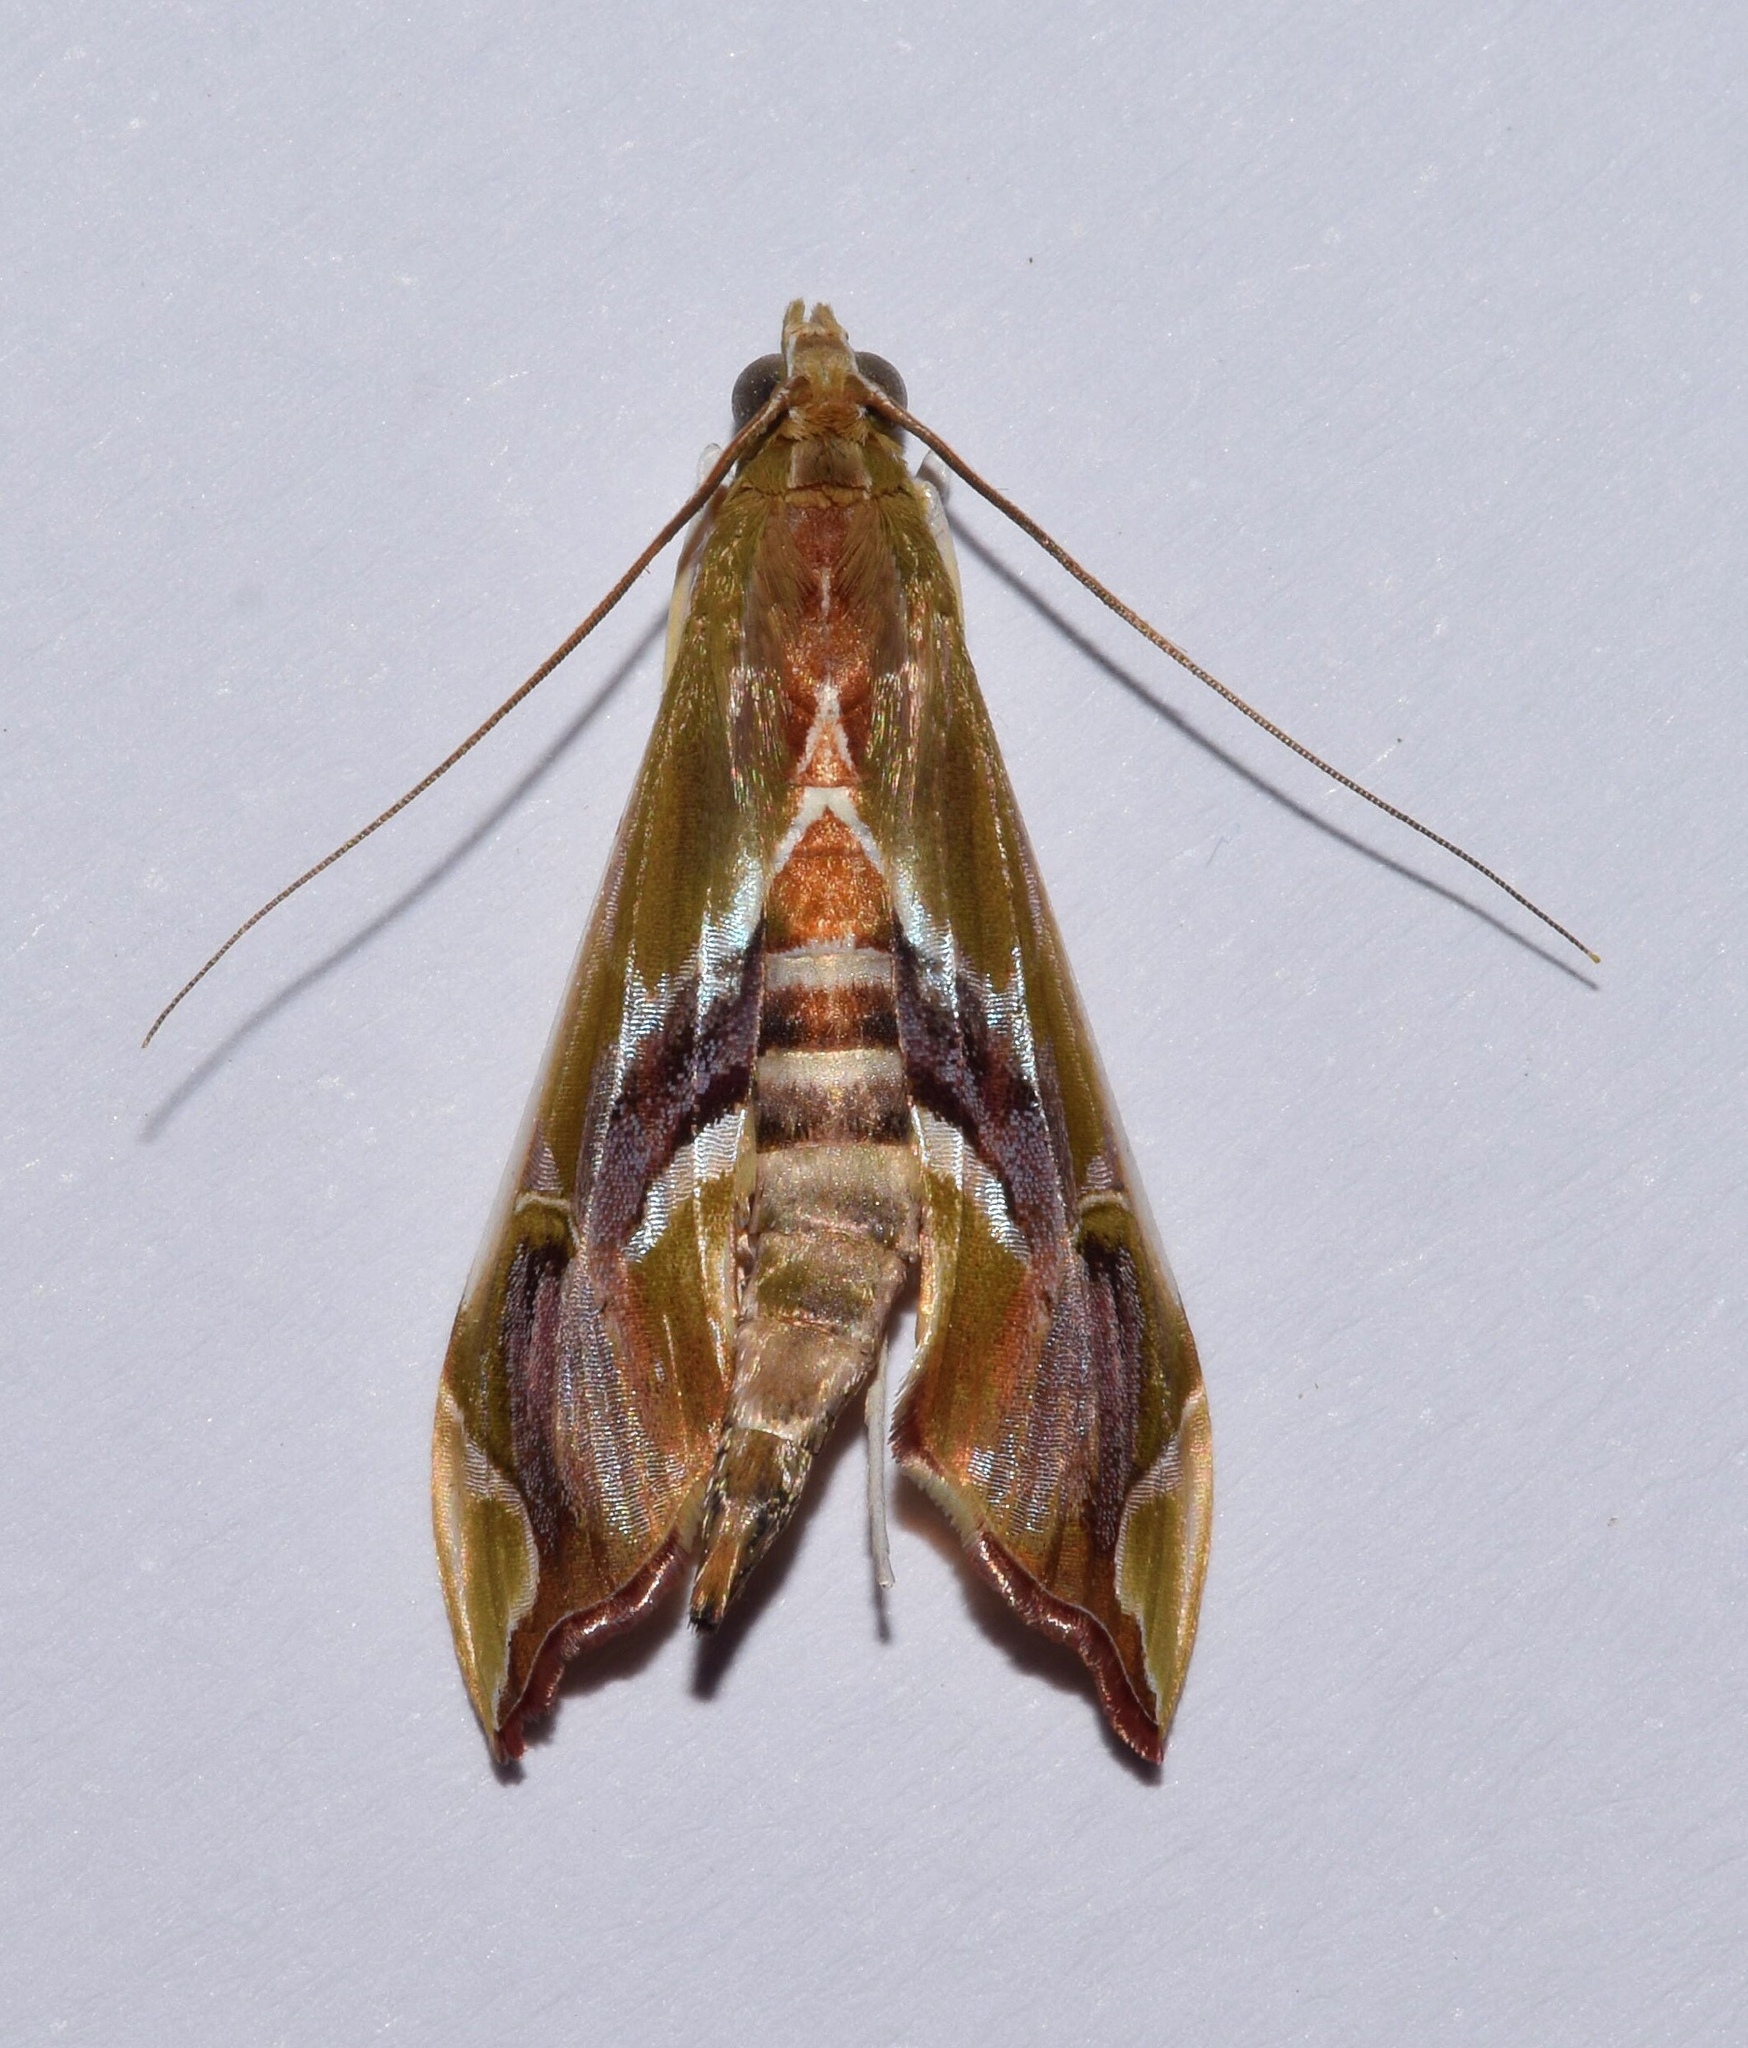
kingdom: Animalia
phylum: Arthropoda
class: Insecta
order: Lepidoptera
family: Crambidae
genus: Agathodes
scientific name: Agathodes musivalis
